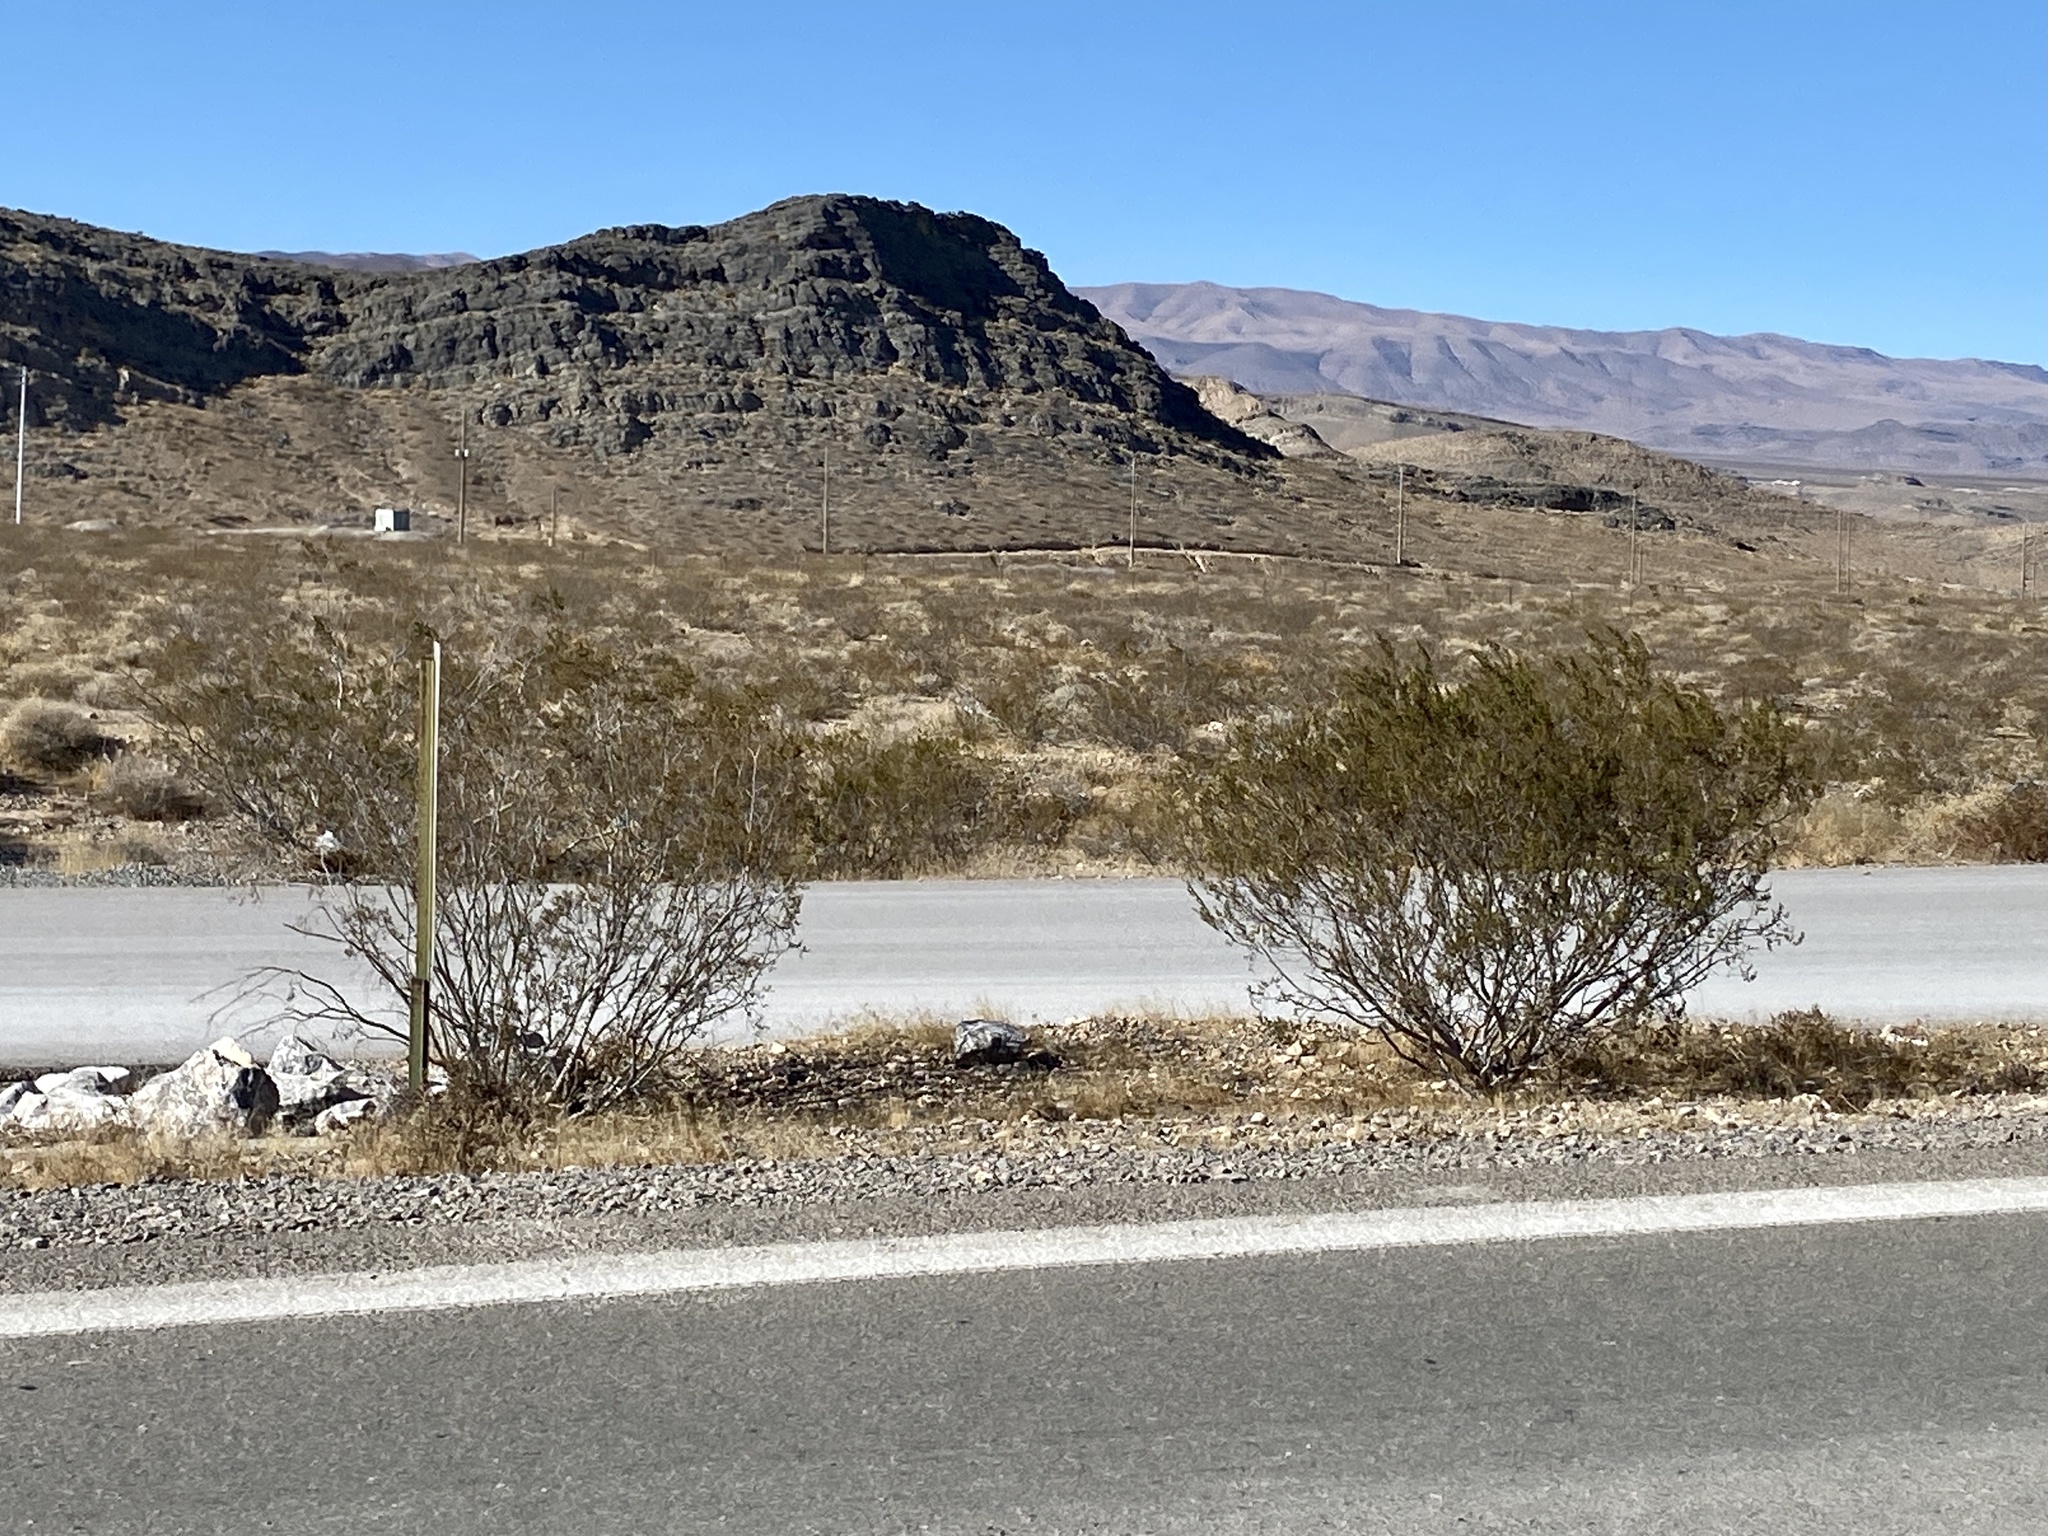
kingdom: Plantae
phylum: Tracheophyta
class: Magnoliopsida
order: Zygophyllales
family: Zygophyllaceae
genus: Larrea
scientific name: Larrea tridentata
